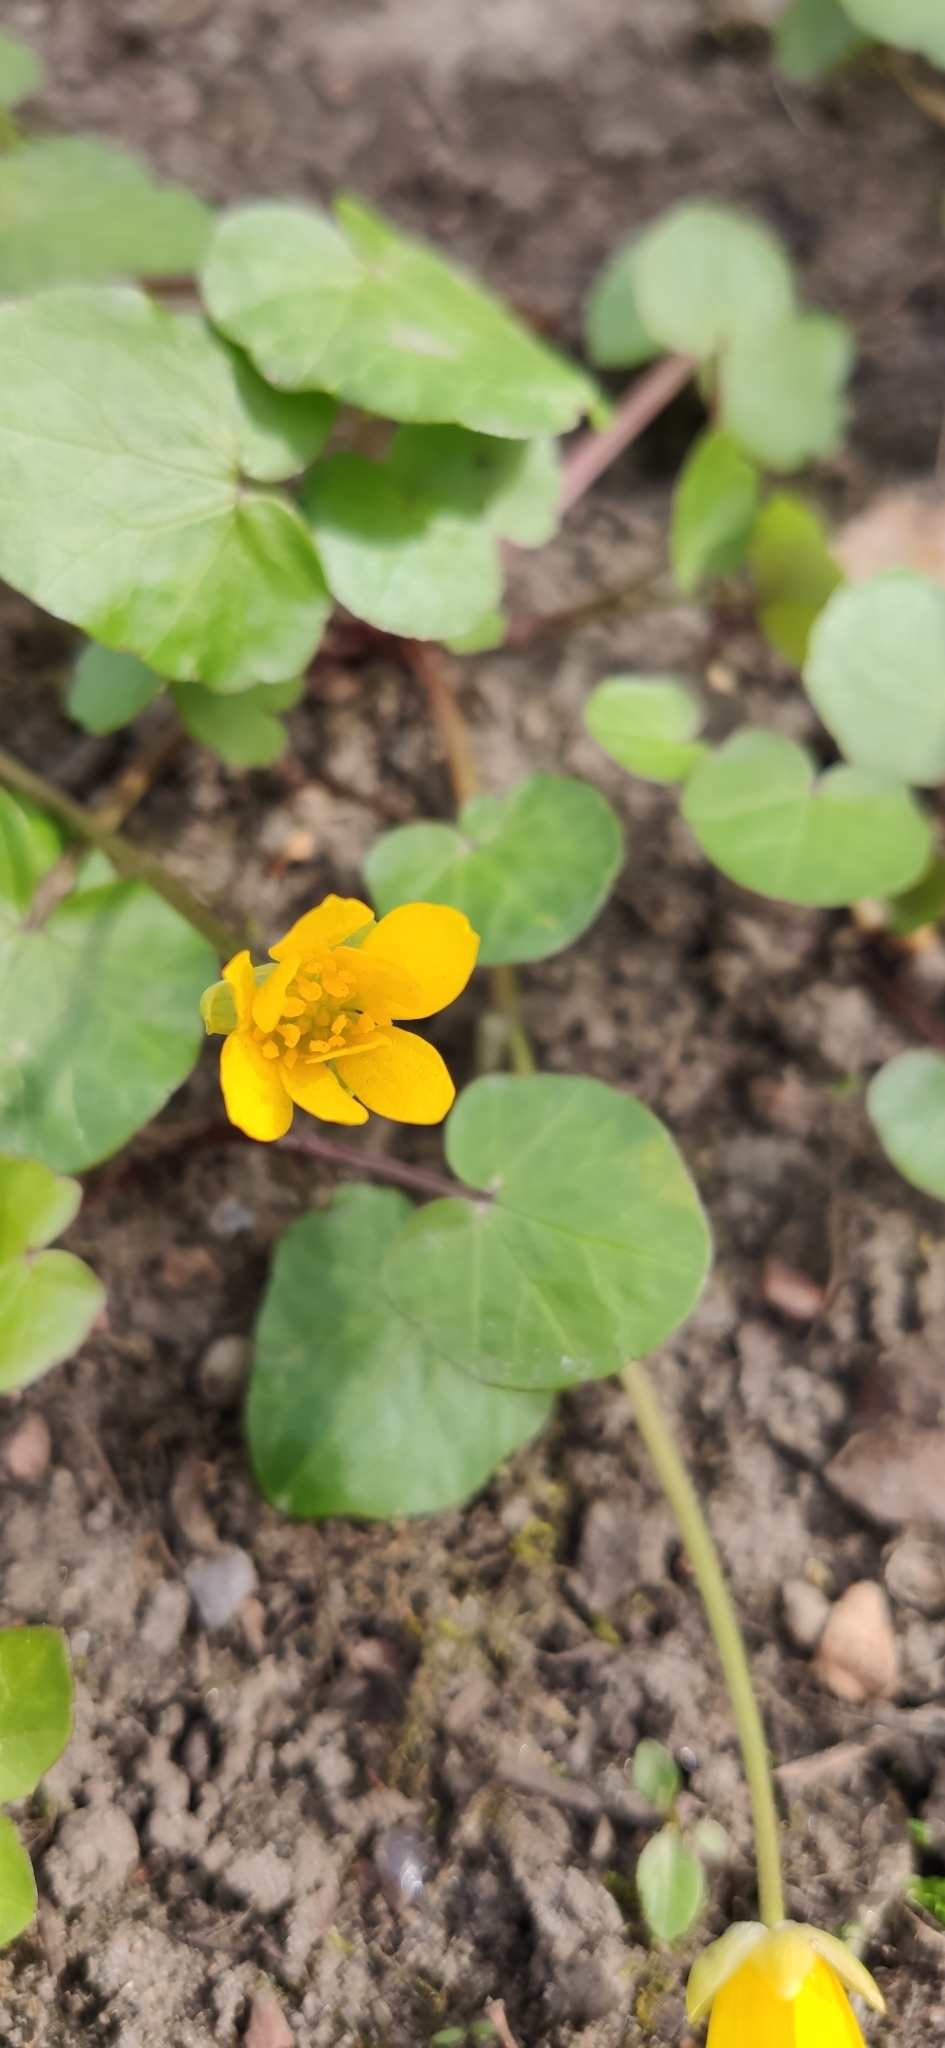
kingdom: Plantae
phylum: Tracheophyta
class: Magnoliopsida
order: Ranunculales
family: Ranunculaceae
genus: Ficaria
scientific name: Ficaria verna
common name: Lesser celandine
